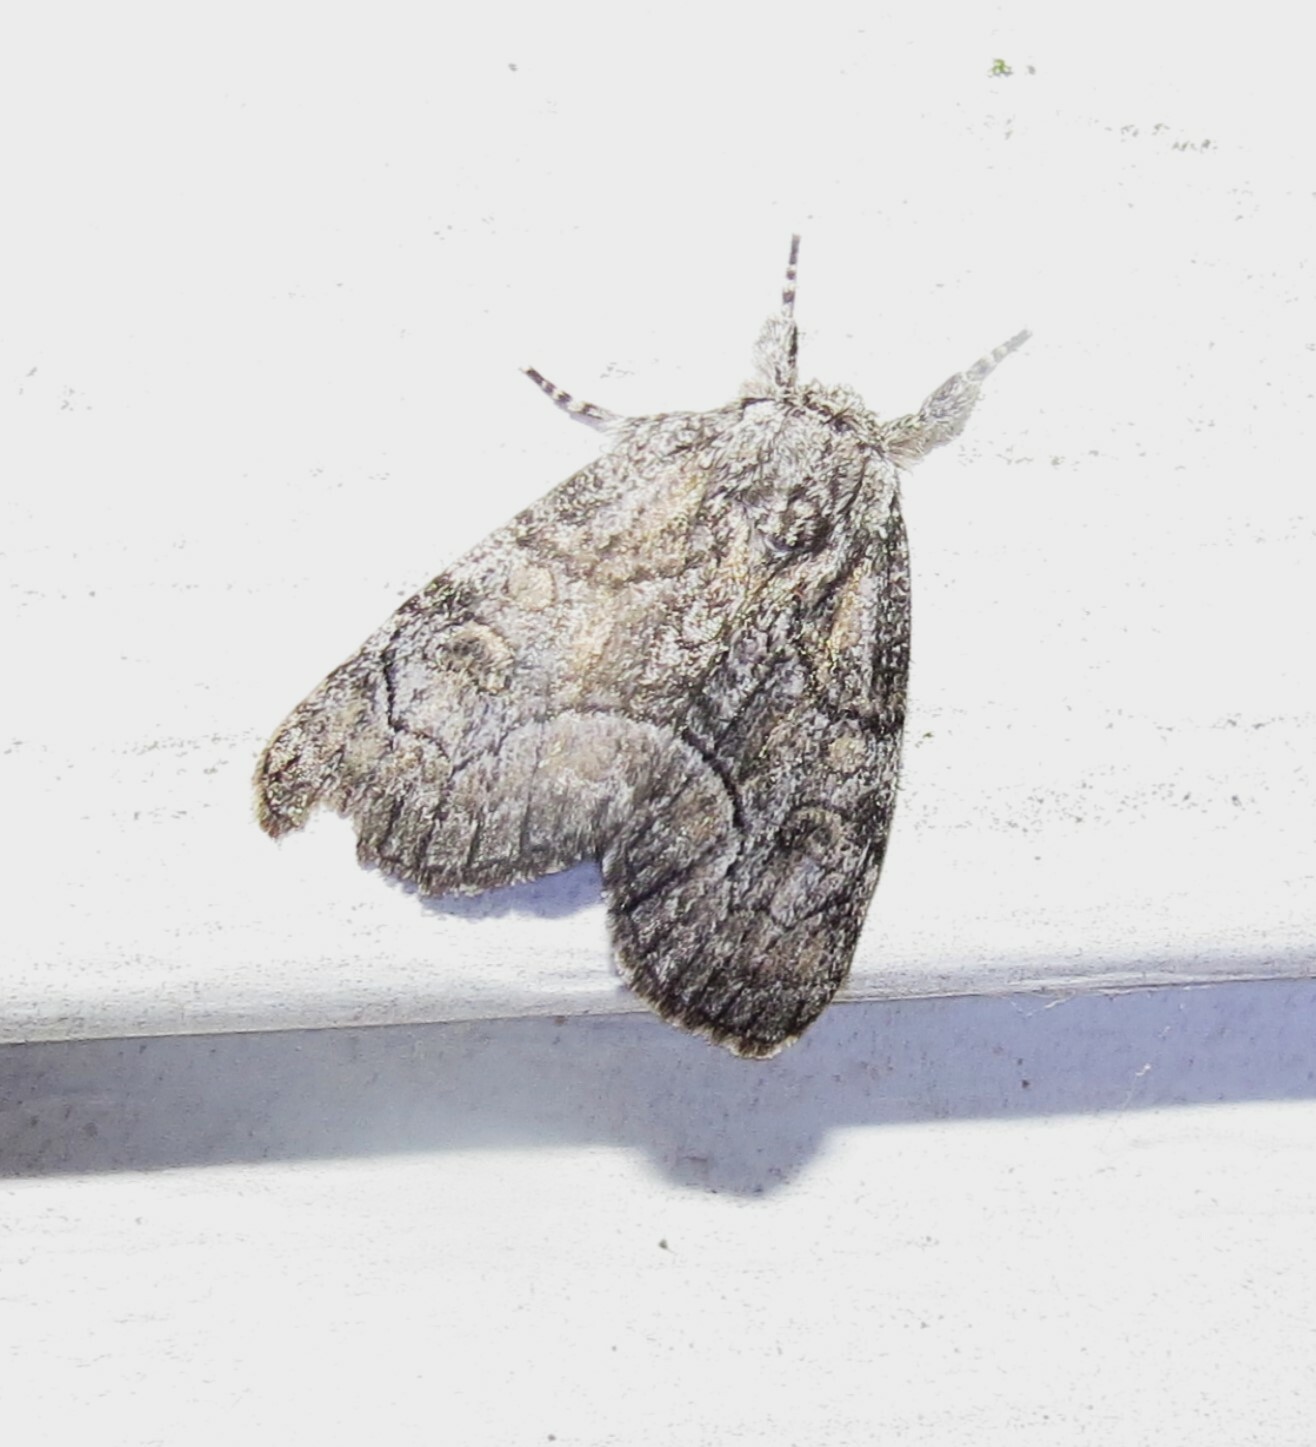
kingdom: Animalia
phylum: Arthropoda
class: Insecta
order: Lepidoptera
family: Noctuidae
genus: Raphia
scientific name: Raphia frater
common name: Brother
